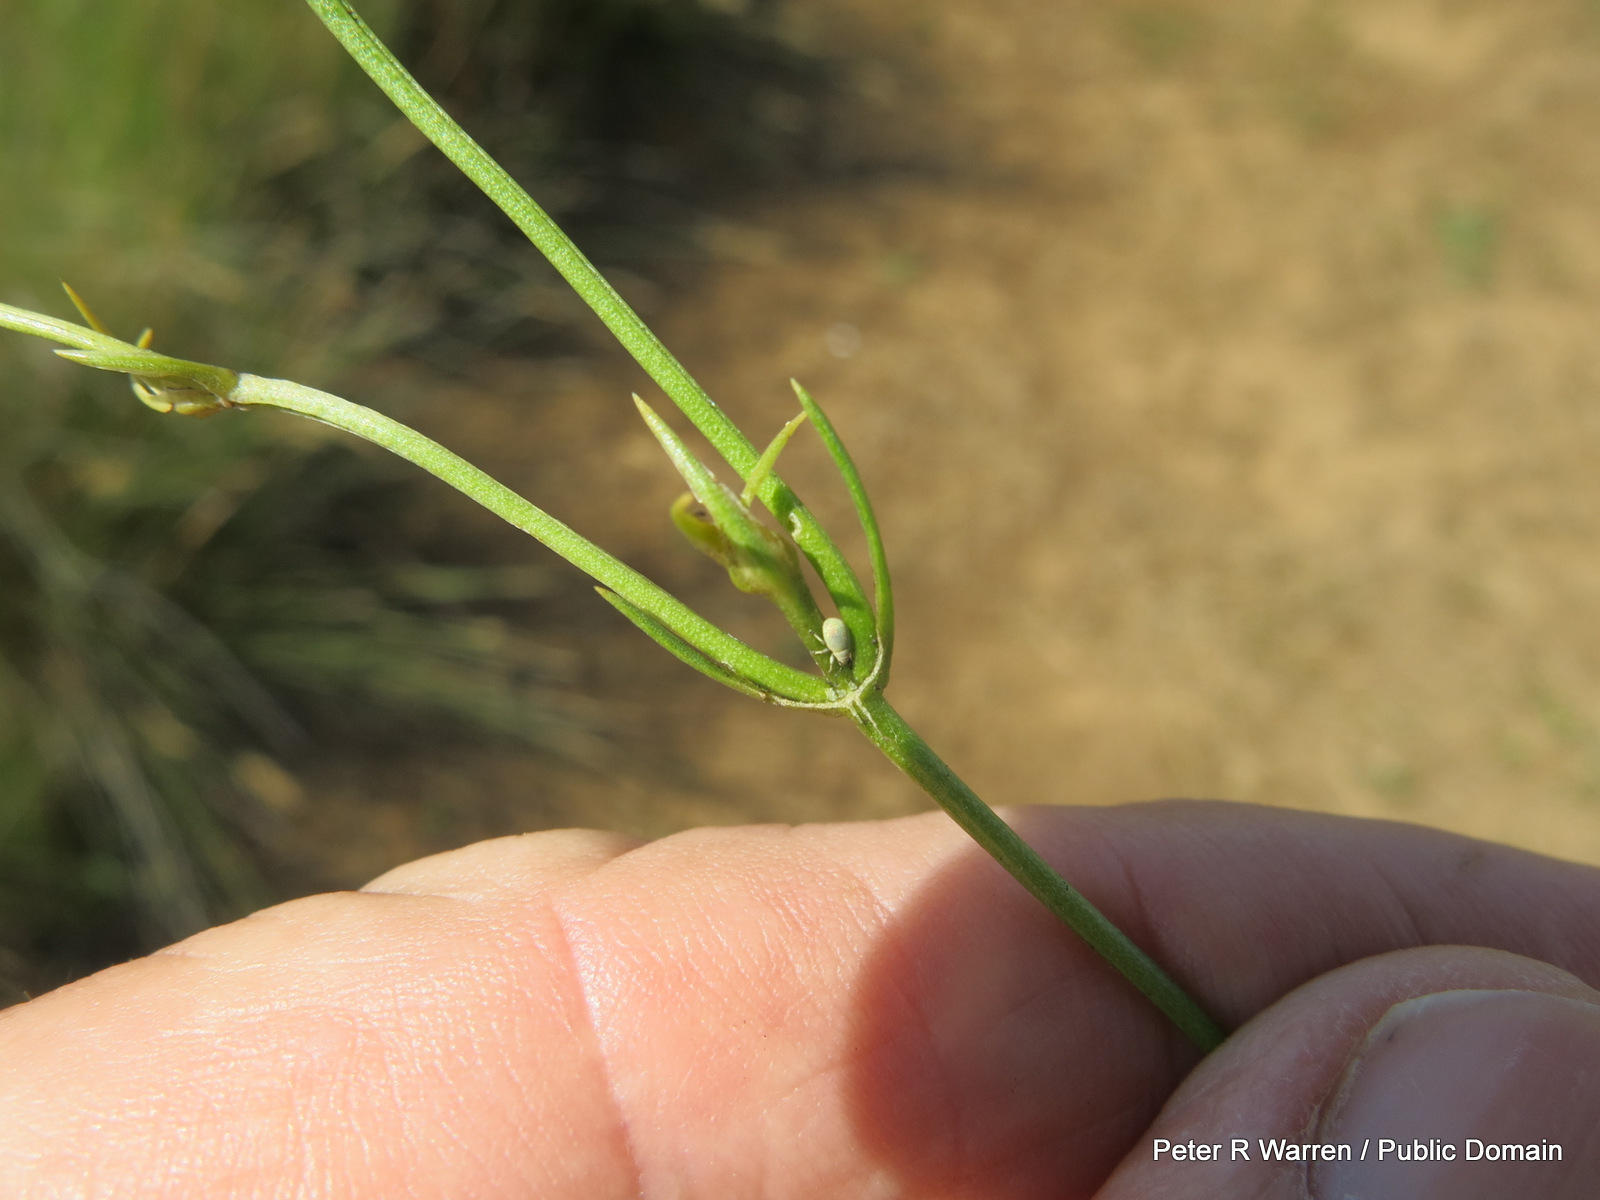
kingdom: Plantae
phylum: Tracheophyta
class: Magnoliopsida
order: Gentianales
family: Gentianaceae
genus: Chironia
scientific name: Chironia purpurascens
